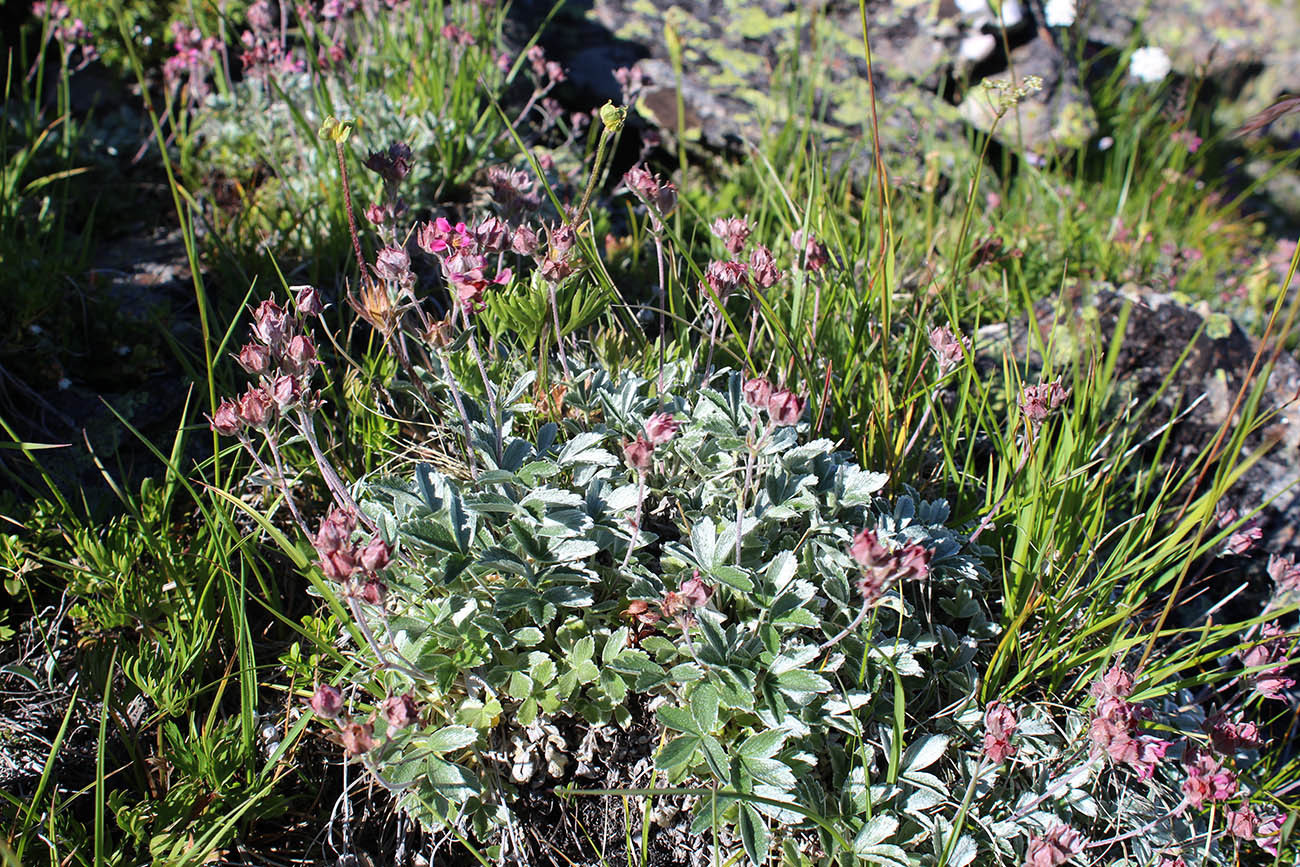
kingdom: Plantae
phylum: Tracheophyta
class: Magnoliopsida
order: Rosales
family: Rosaceae
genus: Potentilla
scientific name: Potentilla divina
